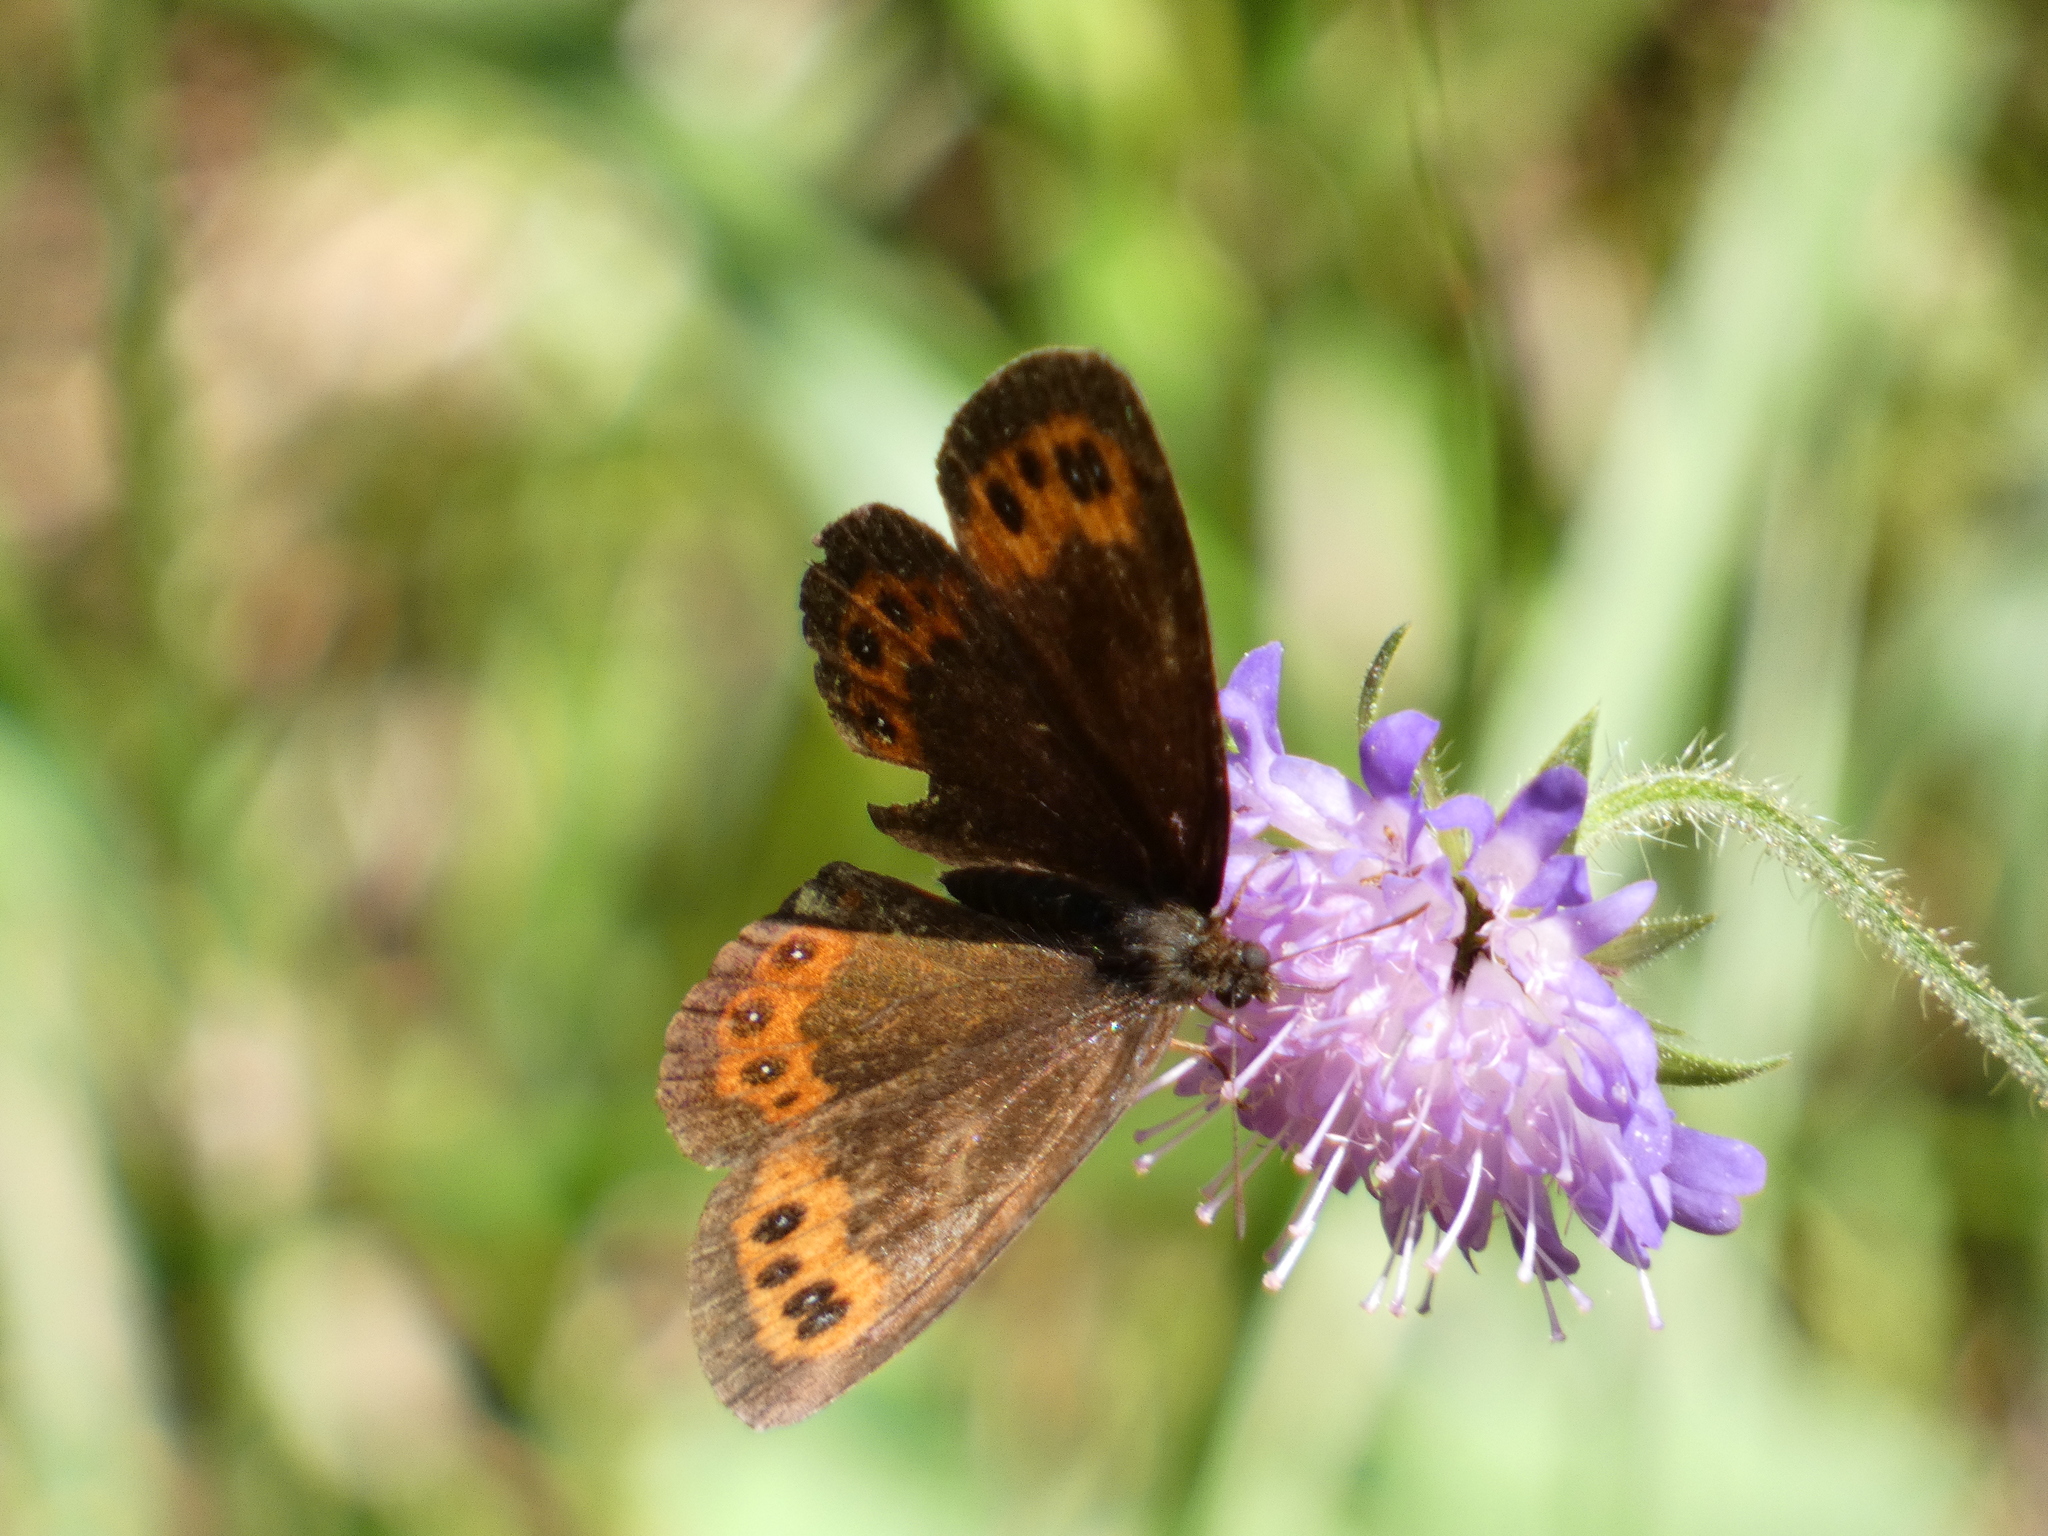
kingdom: Animalia
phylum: Arthropoda
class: Insecta
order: Lepidoptera
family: Nymphalidae
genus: Erebia
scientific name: Erebia ligea
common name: Arran brown
